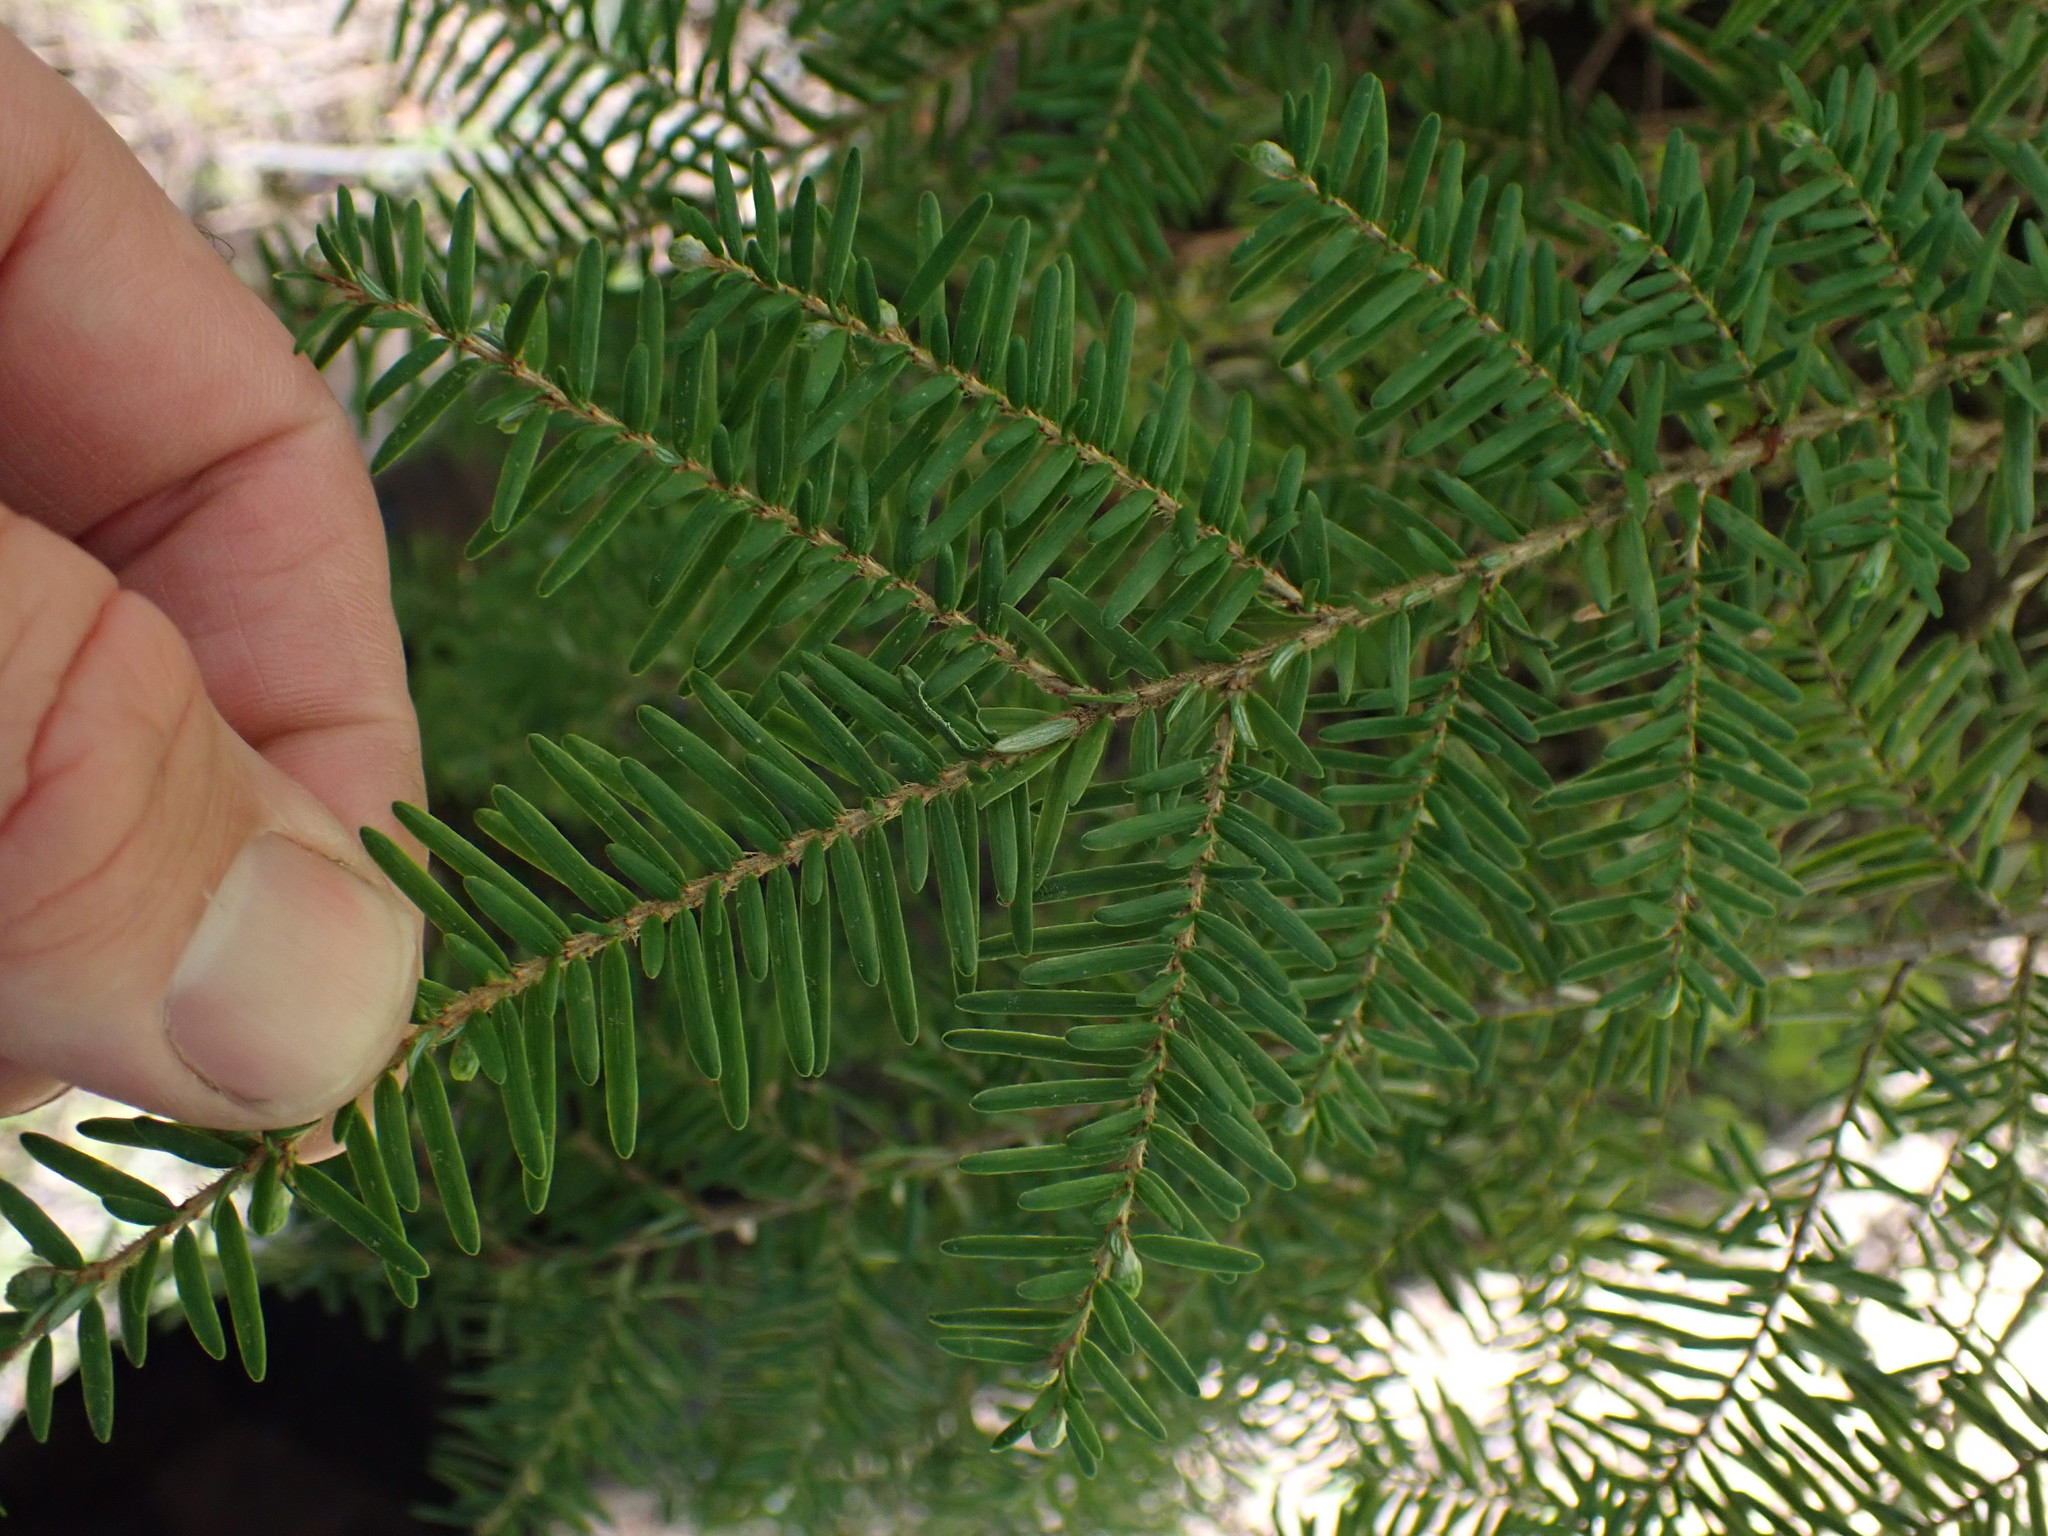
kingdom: Plantae
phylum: Tracheophyta
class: Pinopsida
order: Pinales
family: Pinaceae
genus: Tsuga
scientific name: Tsuga heterophylla
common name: Western hemlock
